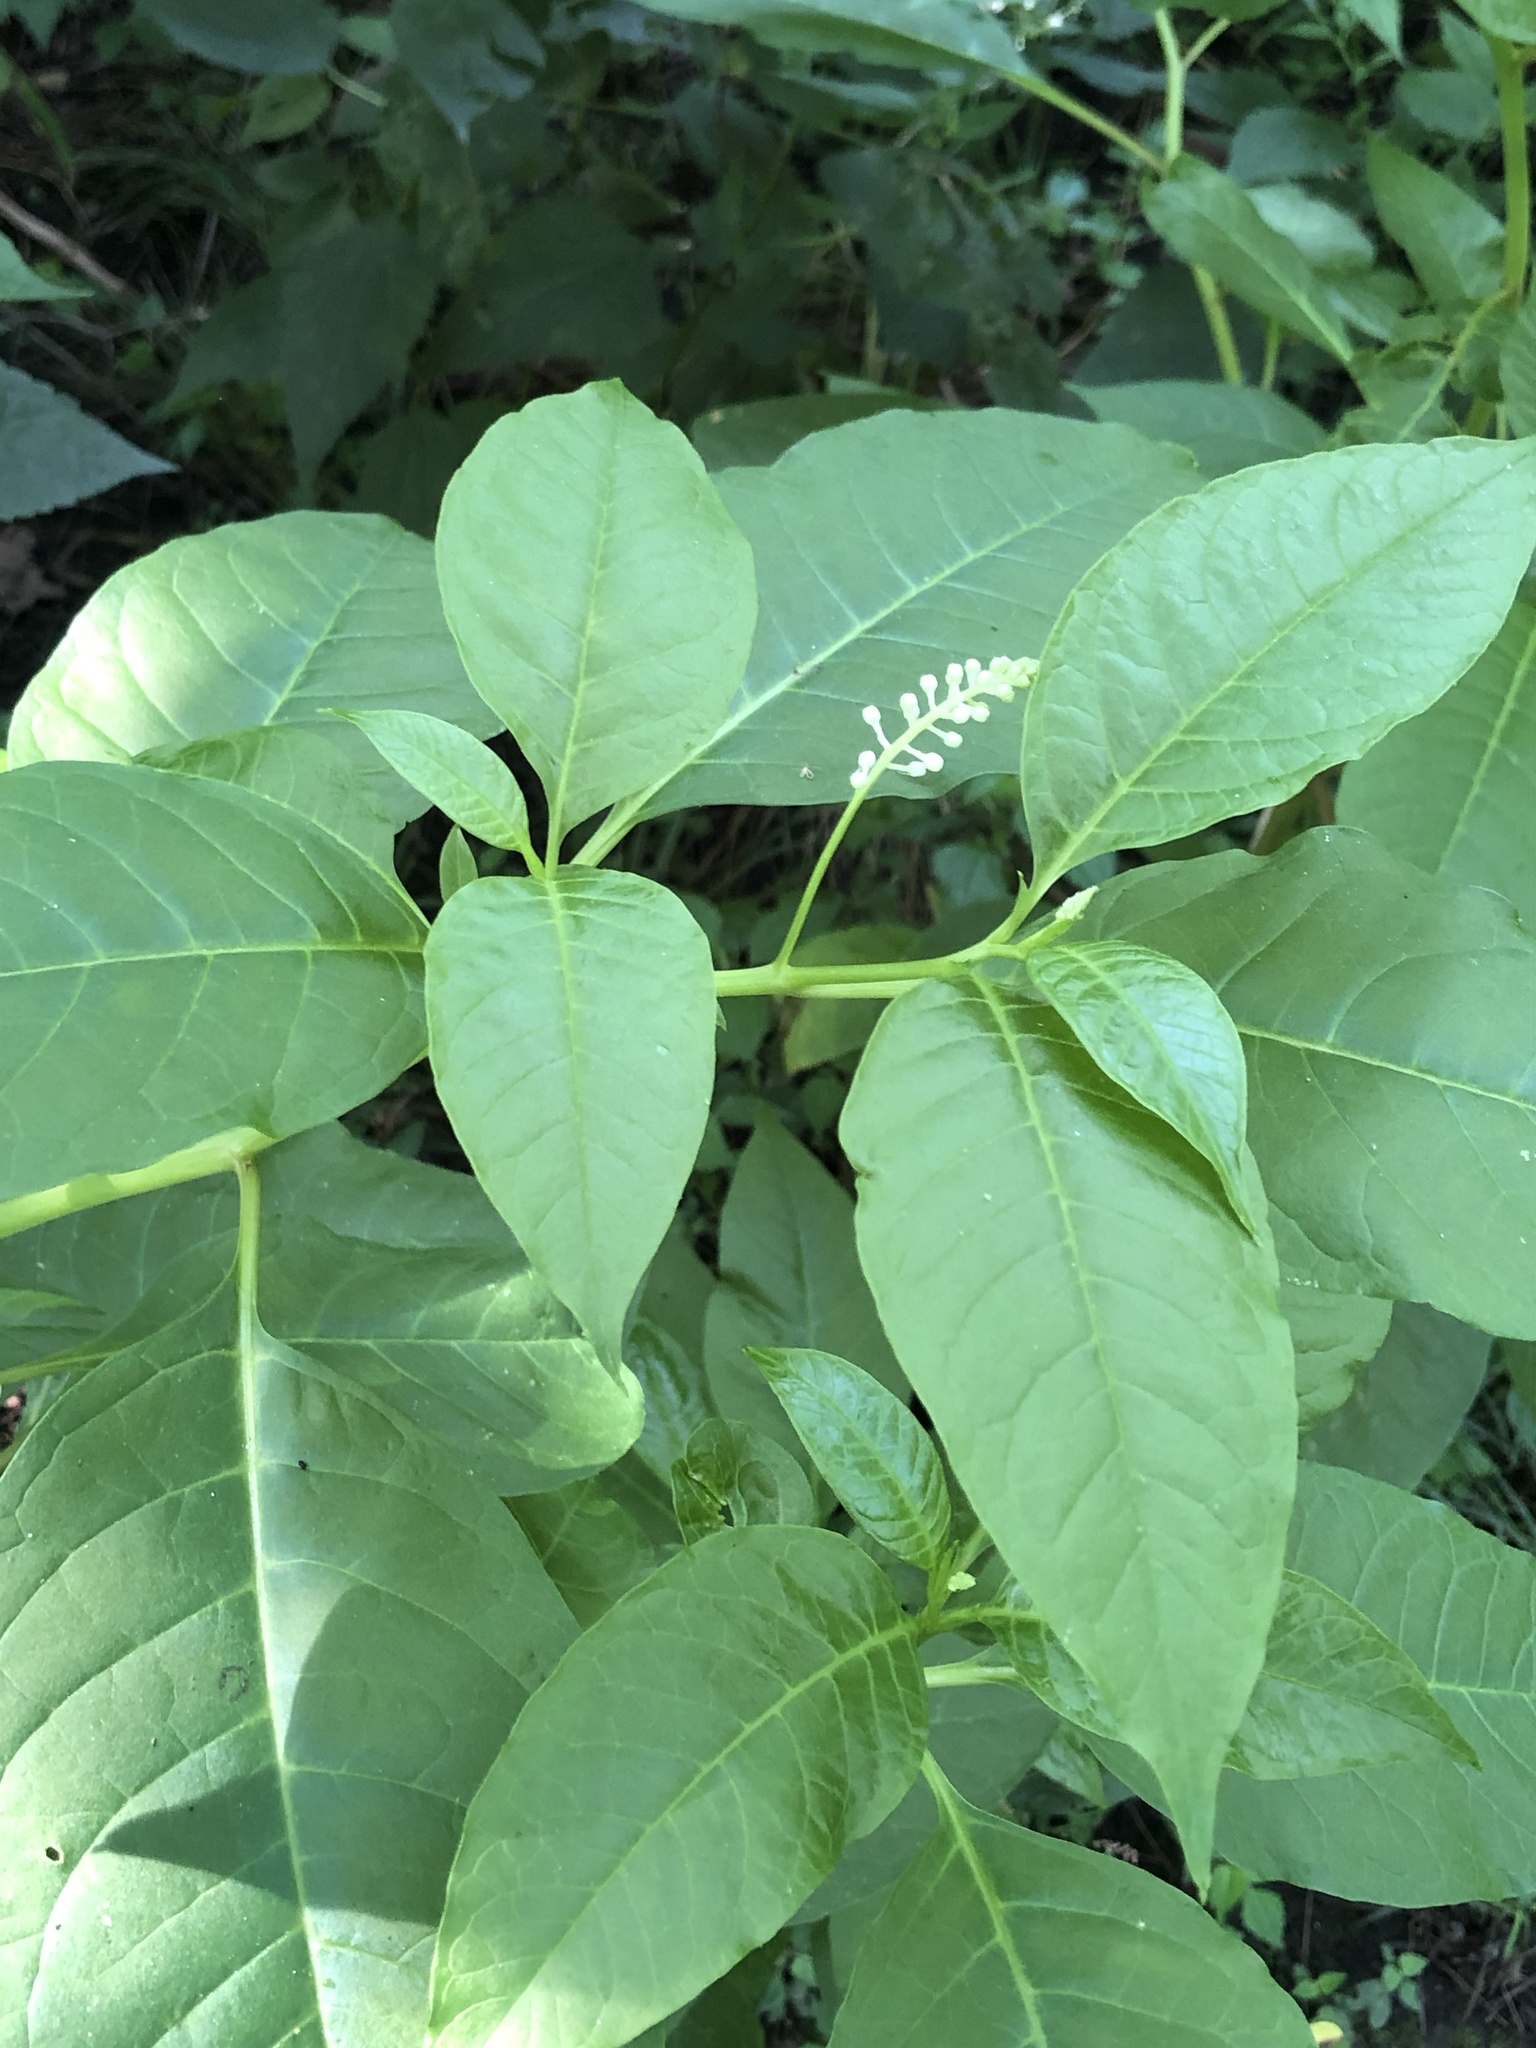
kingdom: Plantae
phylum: Tracheophyta
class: Magnoliopsida
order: Caryophyllales
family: Phytolaccaceae
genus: Phytolacca
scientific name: Phytolacca americana
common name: American pokeweed
